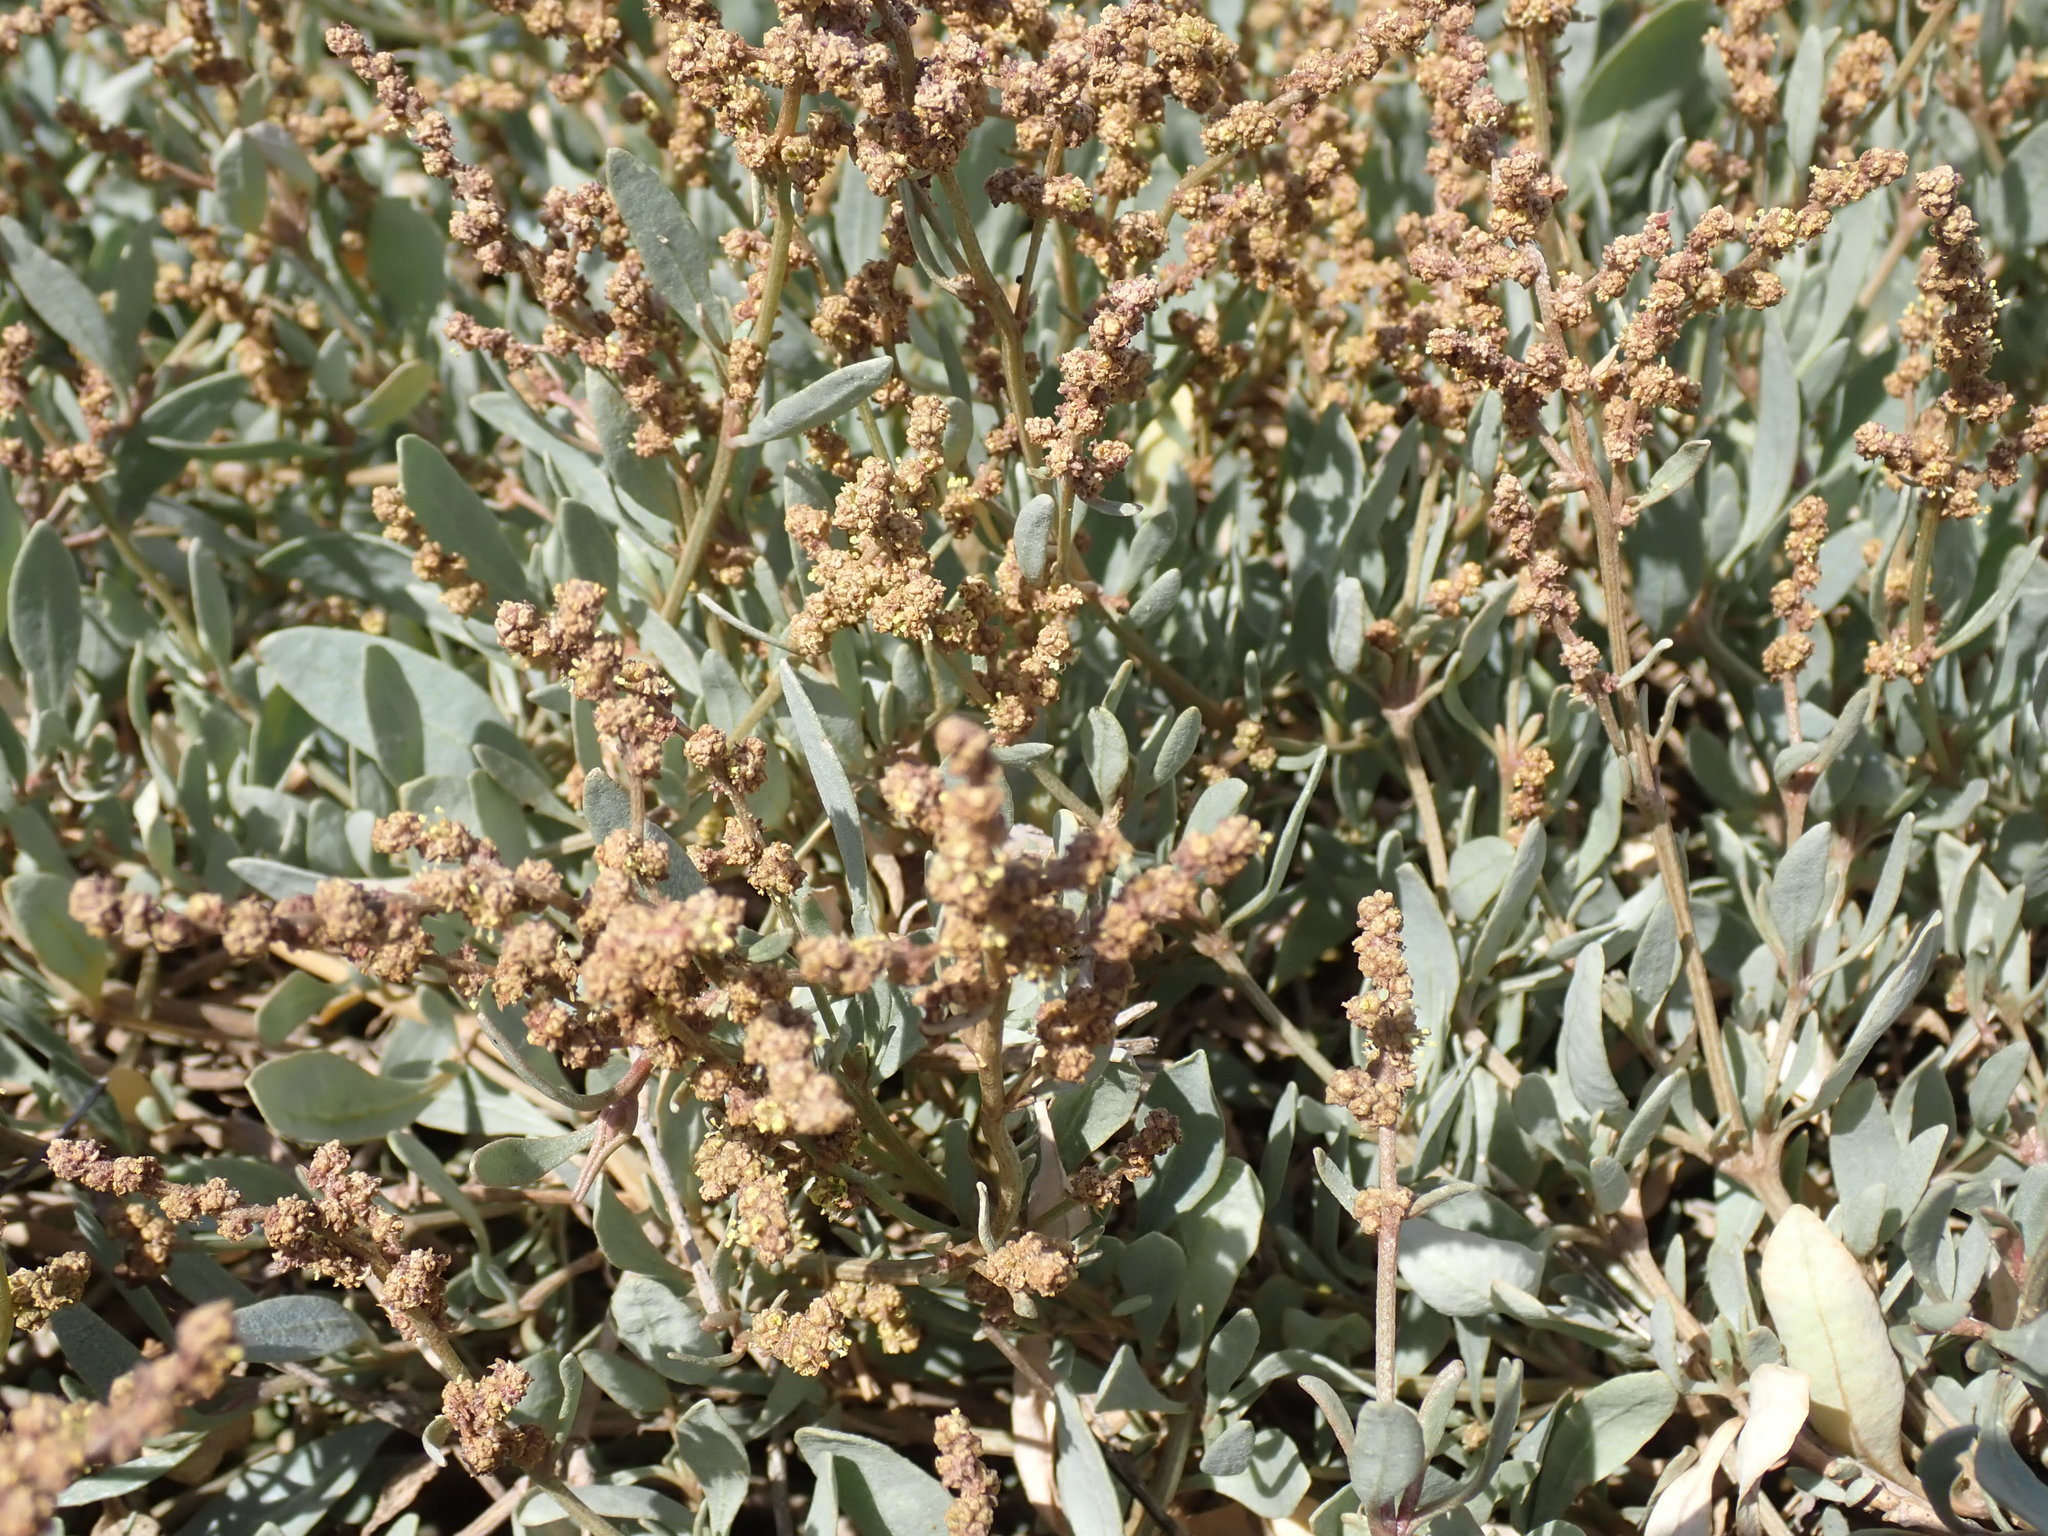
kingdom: Plantae
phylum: Tracheophyta
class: Magnoliopsida
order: Caryophyllales
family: Amaranthaceae
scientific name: Amaranthaceae
